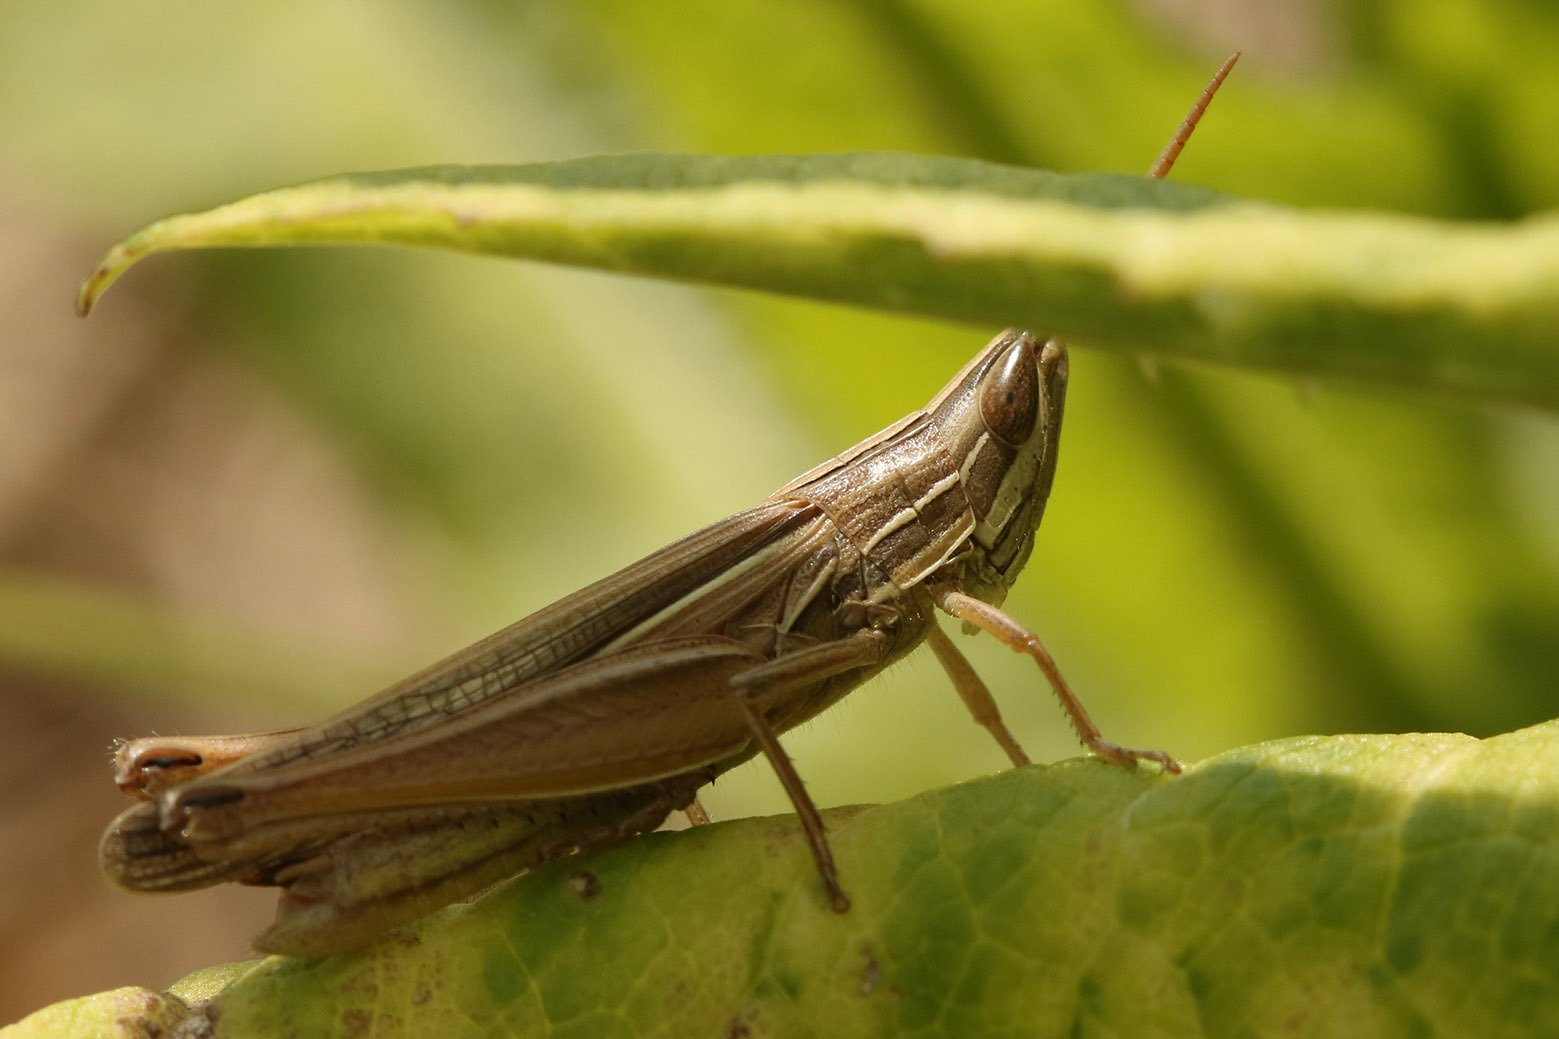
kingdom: Animalia
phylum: Arthropoda
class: Insecta
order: Orthoptera
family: Acrididae
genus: Sinipta
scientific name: Sinipta dalmani
